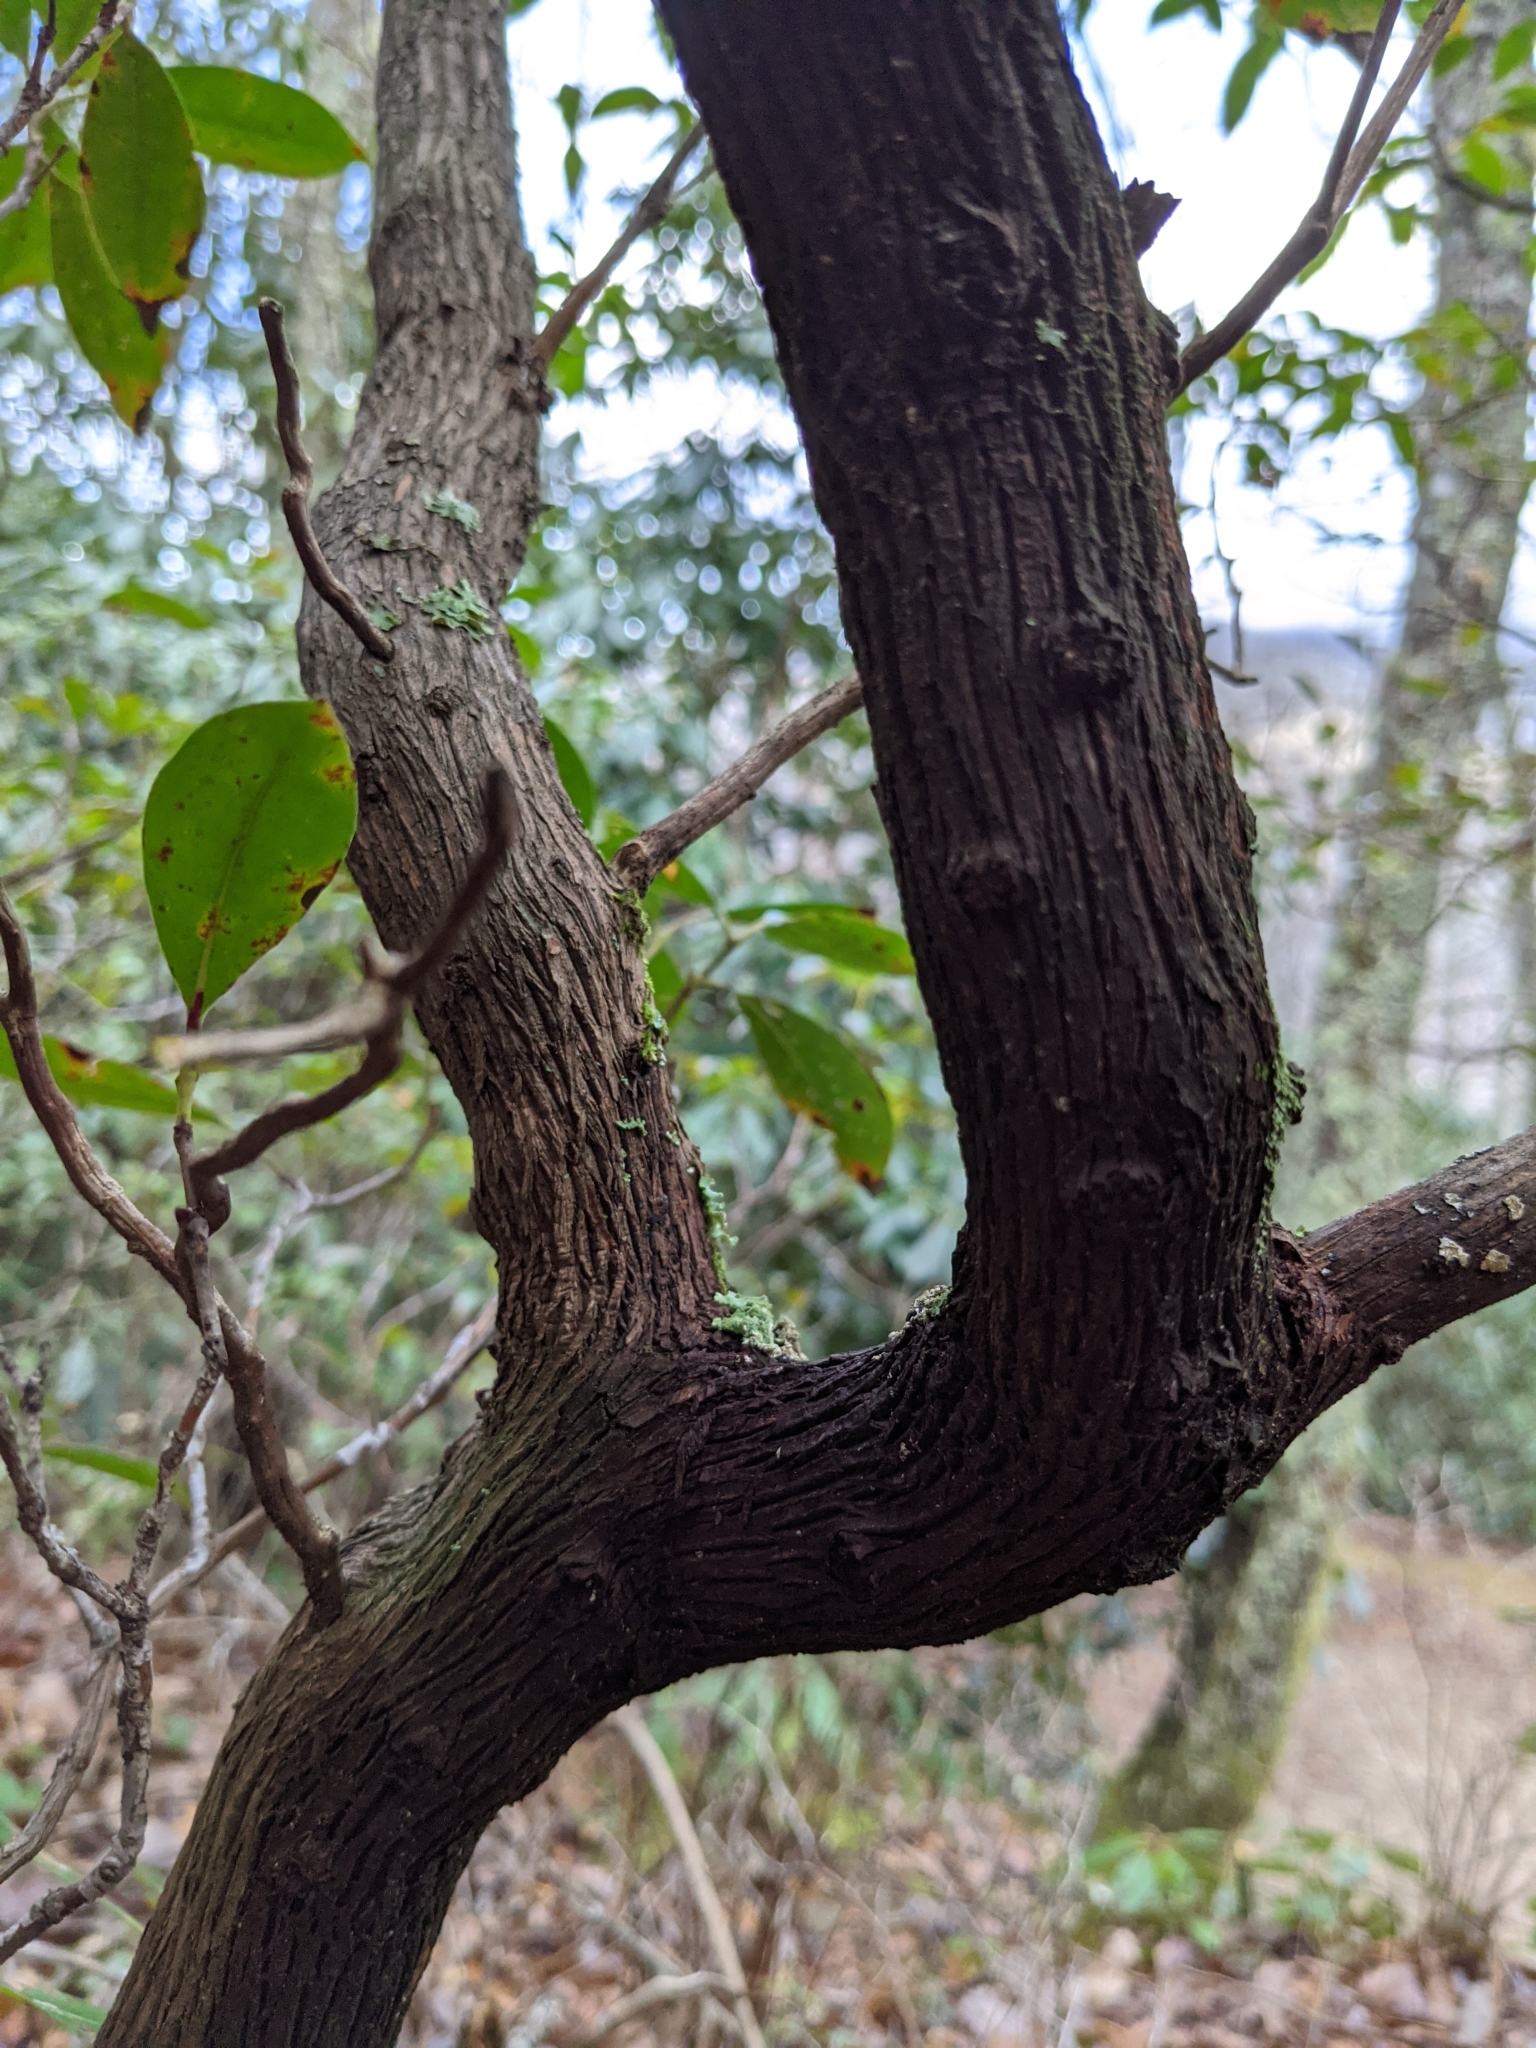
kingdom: Plantae
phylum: Tracheophyta
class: Magnoliopsida
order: Ericales
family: Ericaceae
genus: Kalmia
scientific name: Kalmia latifolia
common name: Mountain-laurel
